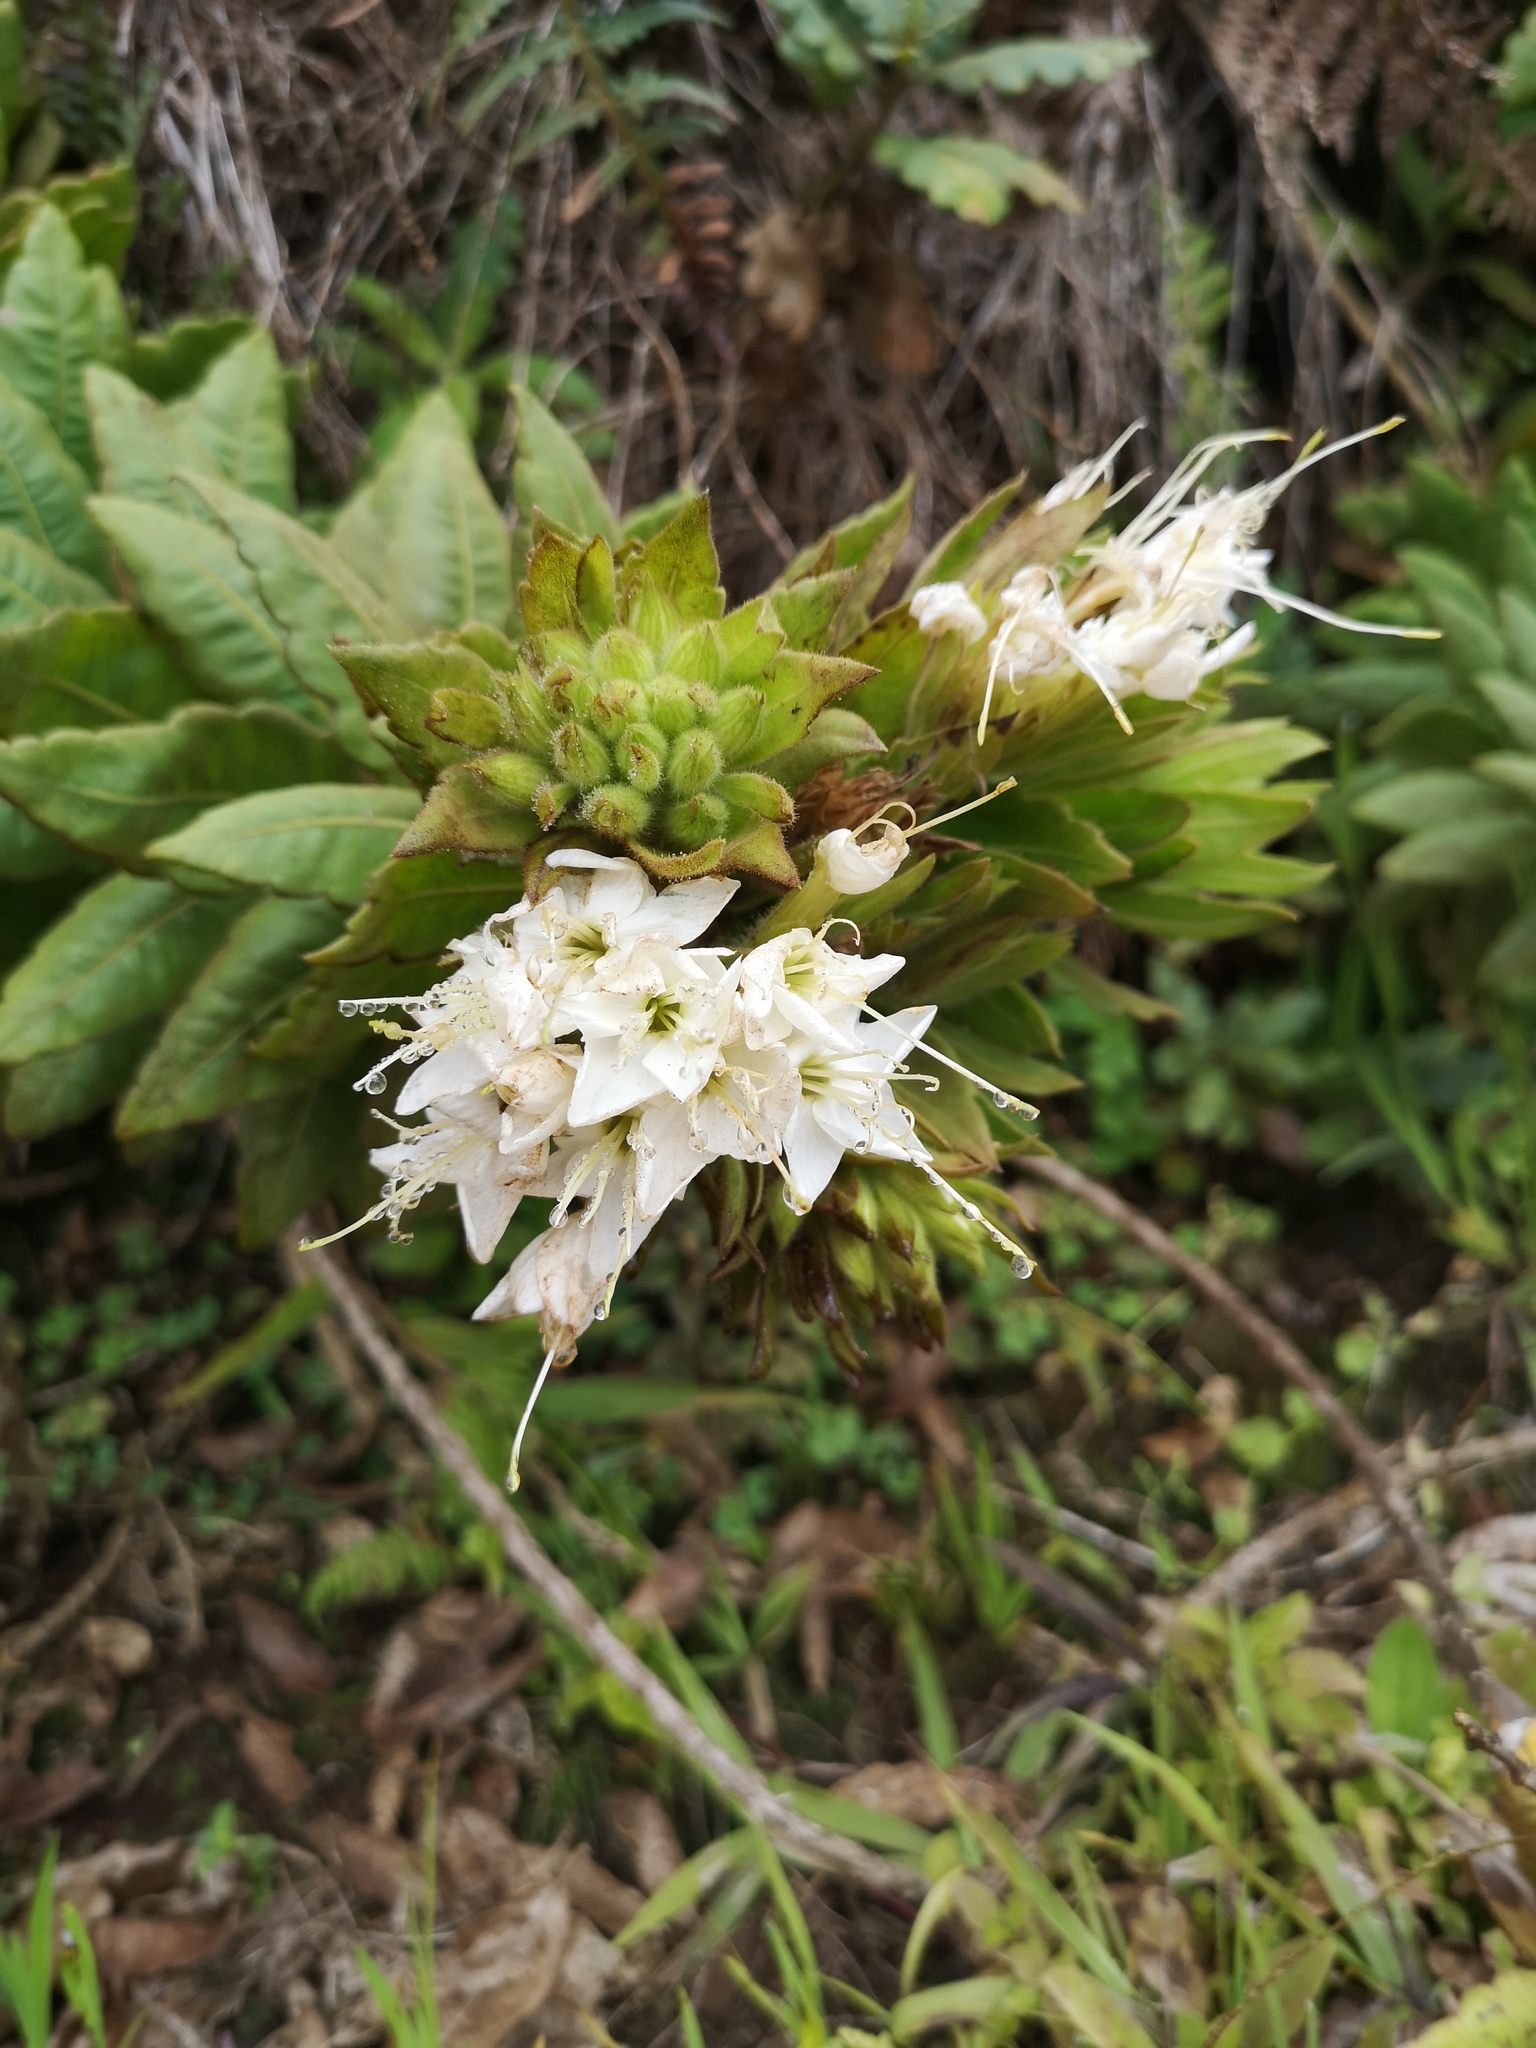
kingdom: Plantae
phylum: Tracheophyta
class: Magnoliopsida
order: Ericales
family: Polemoniaceae
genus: Cantua
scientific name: Cantua quercifolia
